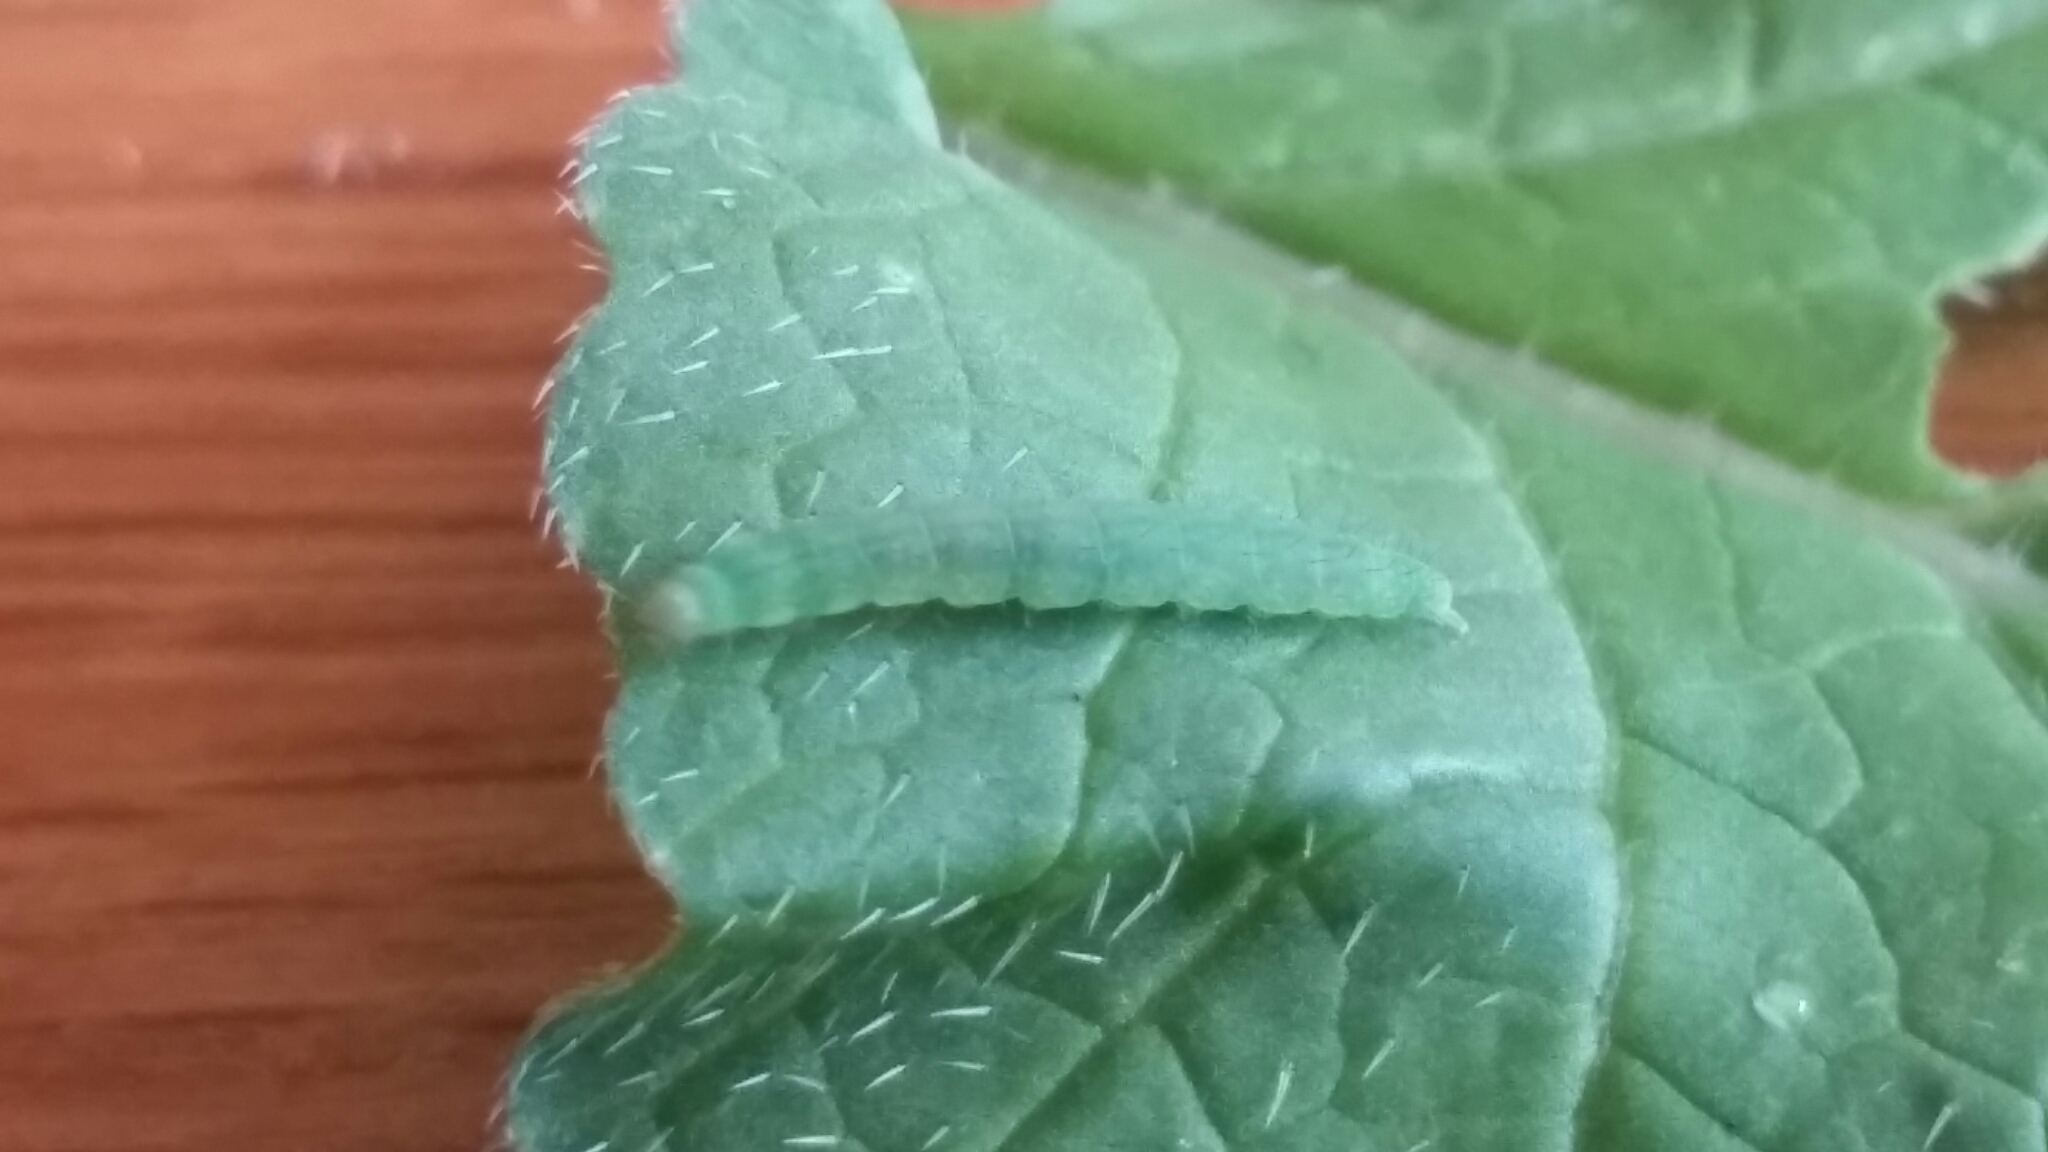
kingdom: Animalia
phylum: Arthropoda
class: Insecta
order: Lepidoptera
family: Pieridae
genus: Pieris
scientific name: Pieris rapae
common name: Small white
